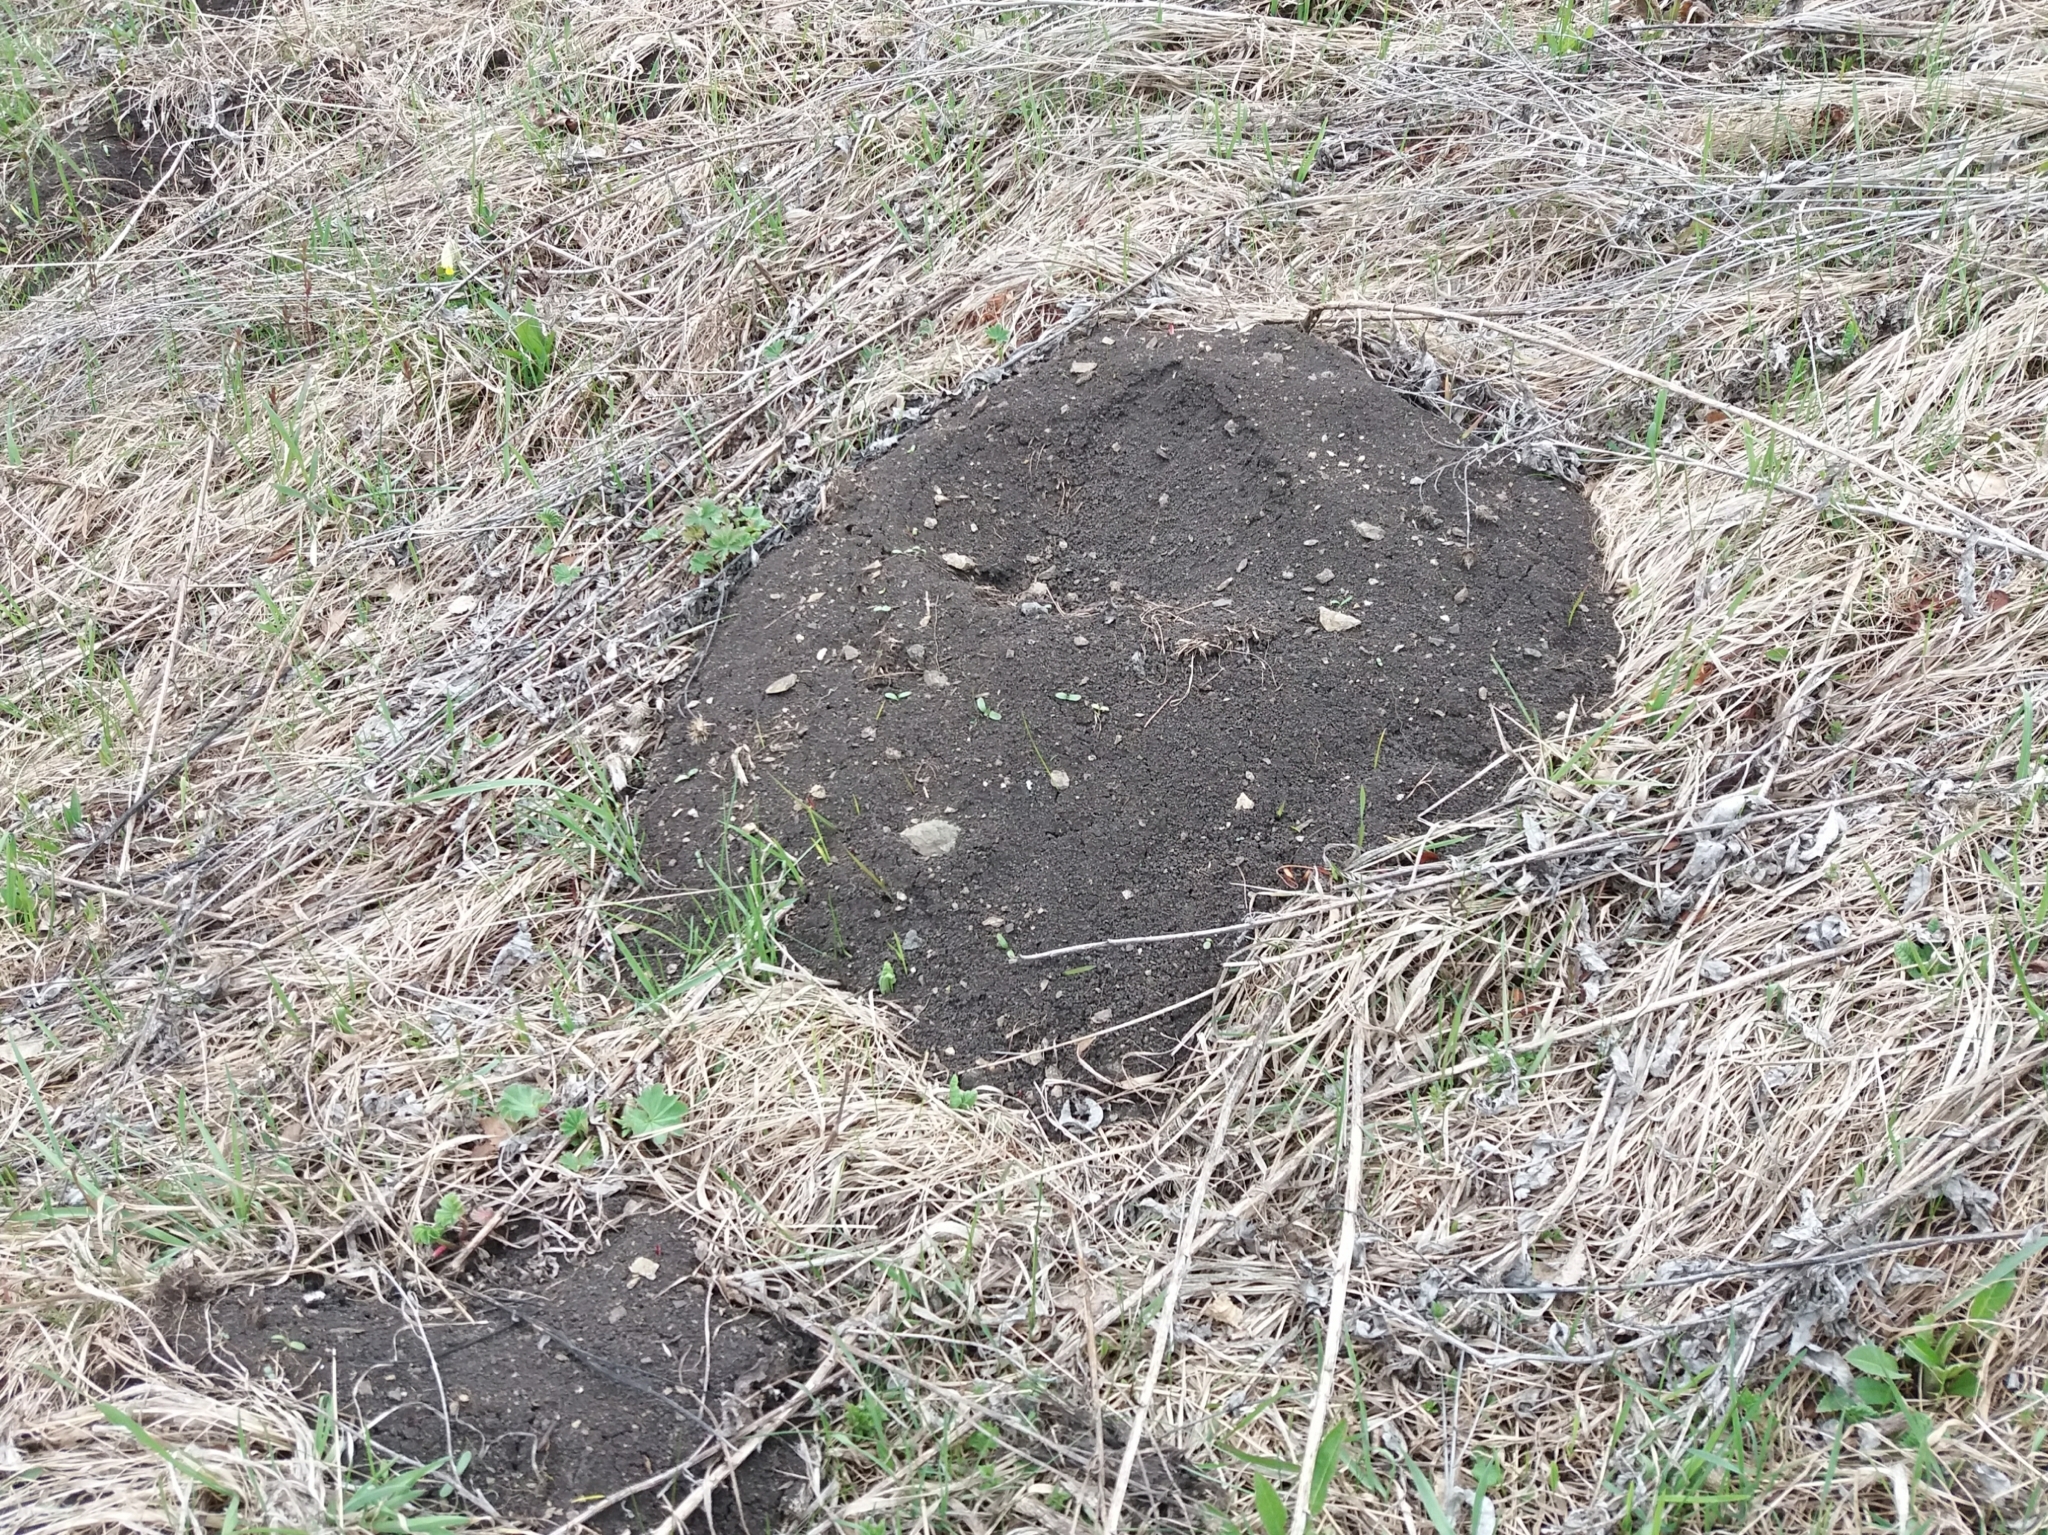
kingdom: Animalia
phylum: Chordata
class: Mammalia
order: Rodentia
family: Spalacidae
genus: Myospalax
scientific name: Myospalax myospalax
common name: Altai zokor
